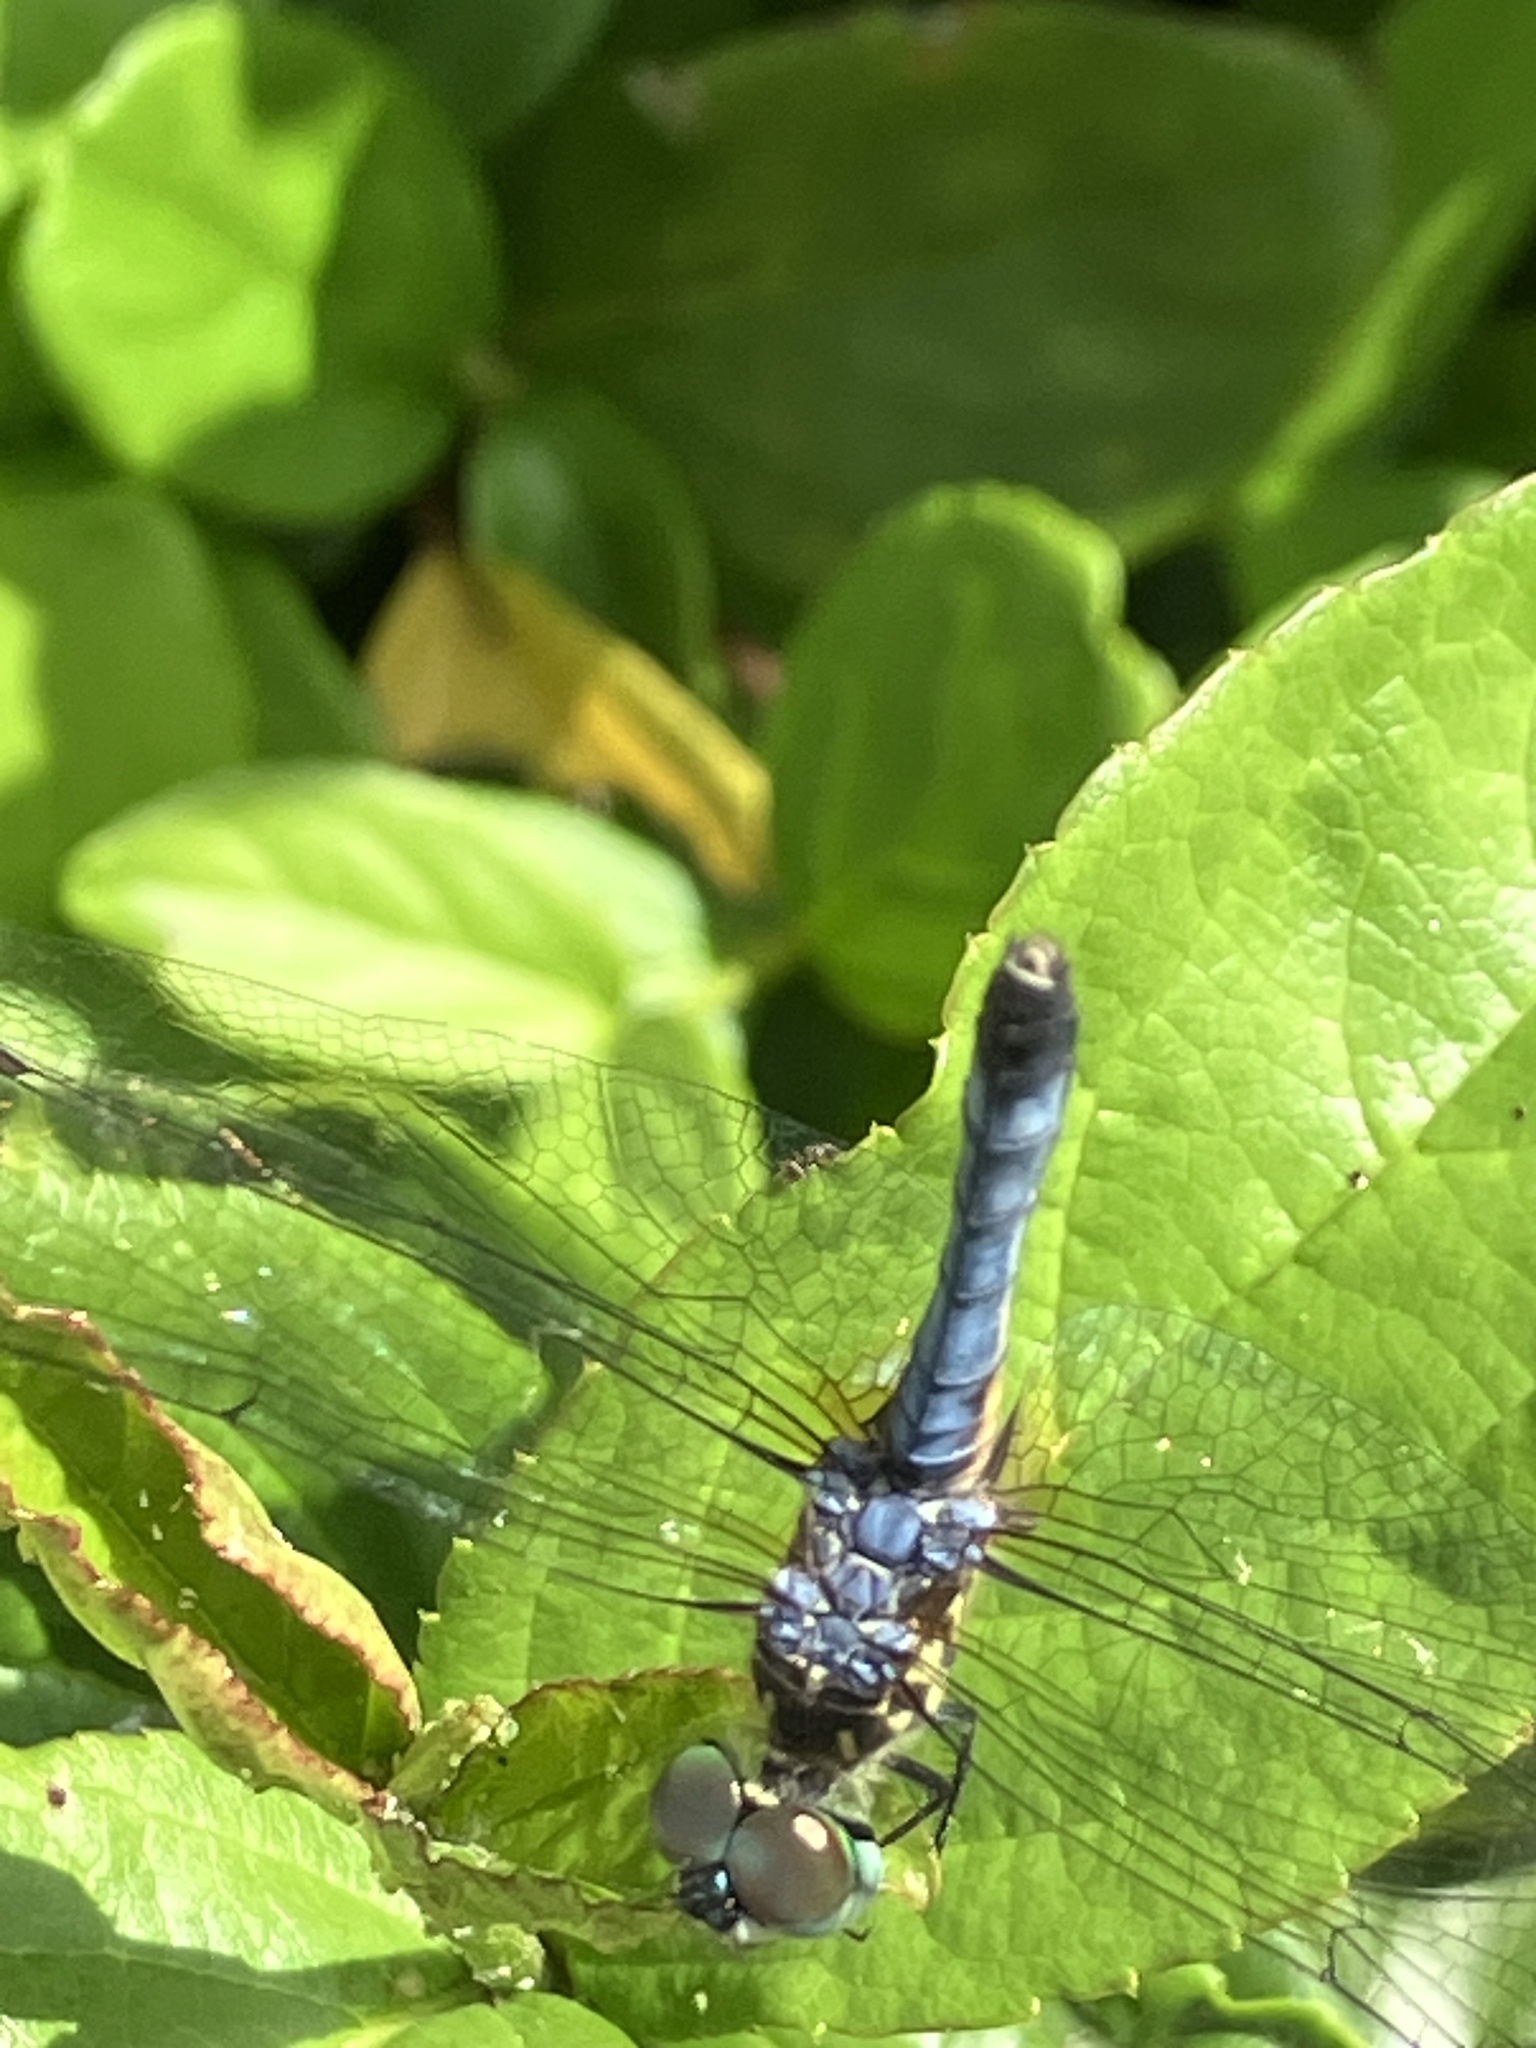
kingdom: Animalia
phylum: Arthropoda
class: Insecta
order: Odonata
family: Libellulidae
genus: Pachydiplax
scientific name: Pachydiplax longipennis
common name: Blue dasher
